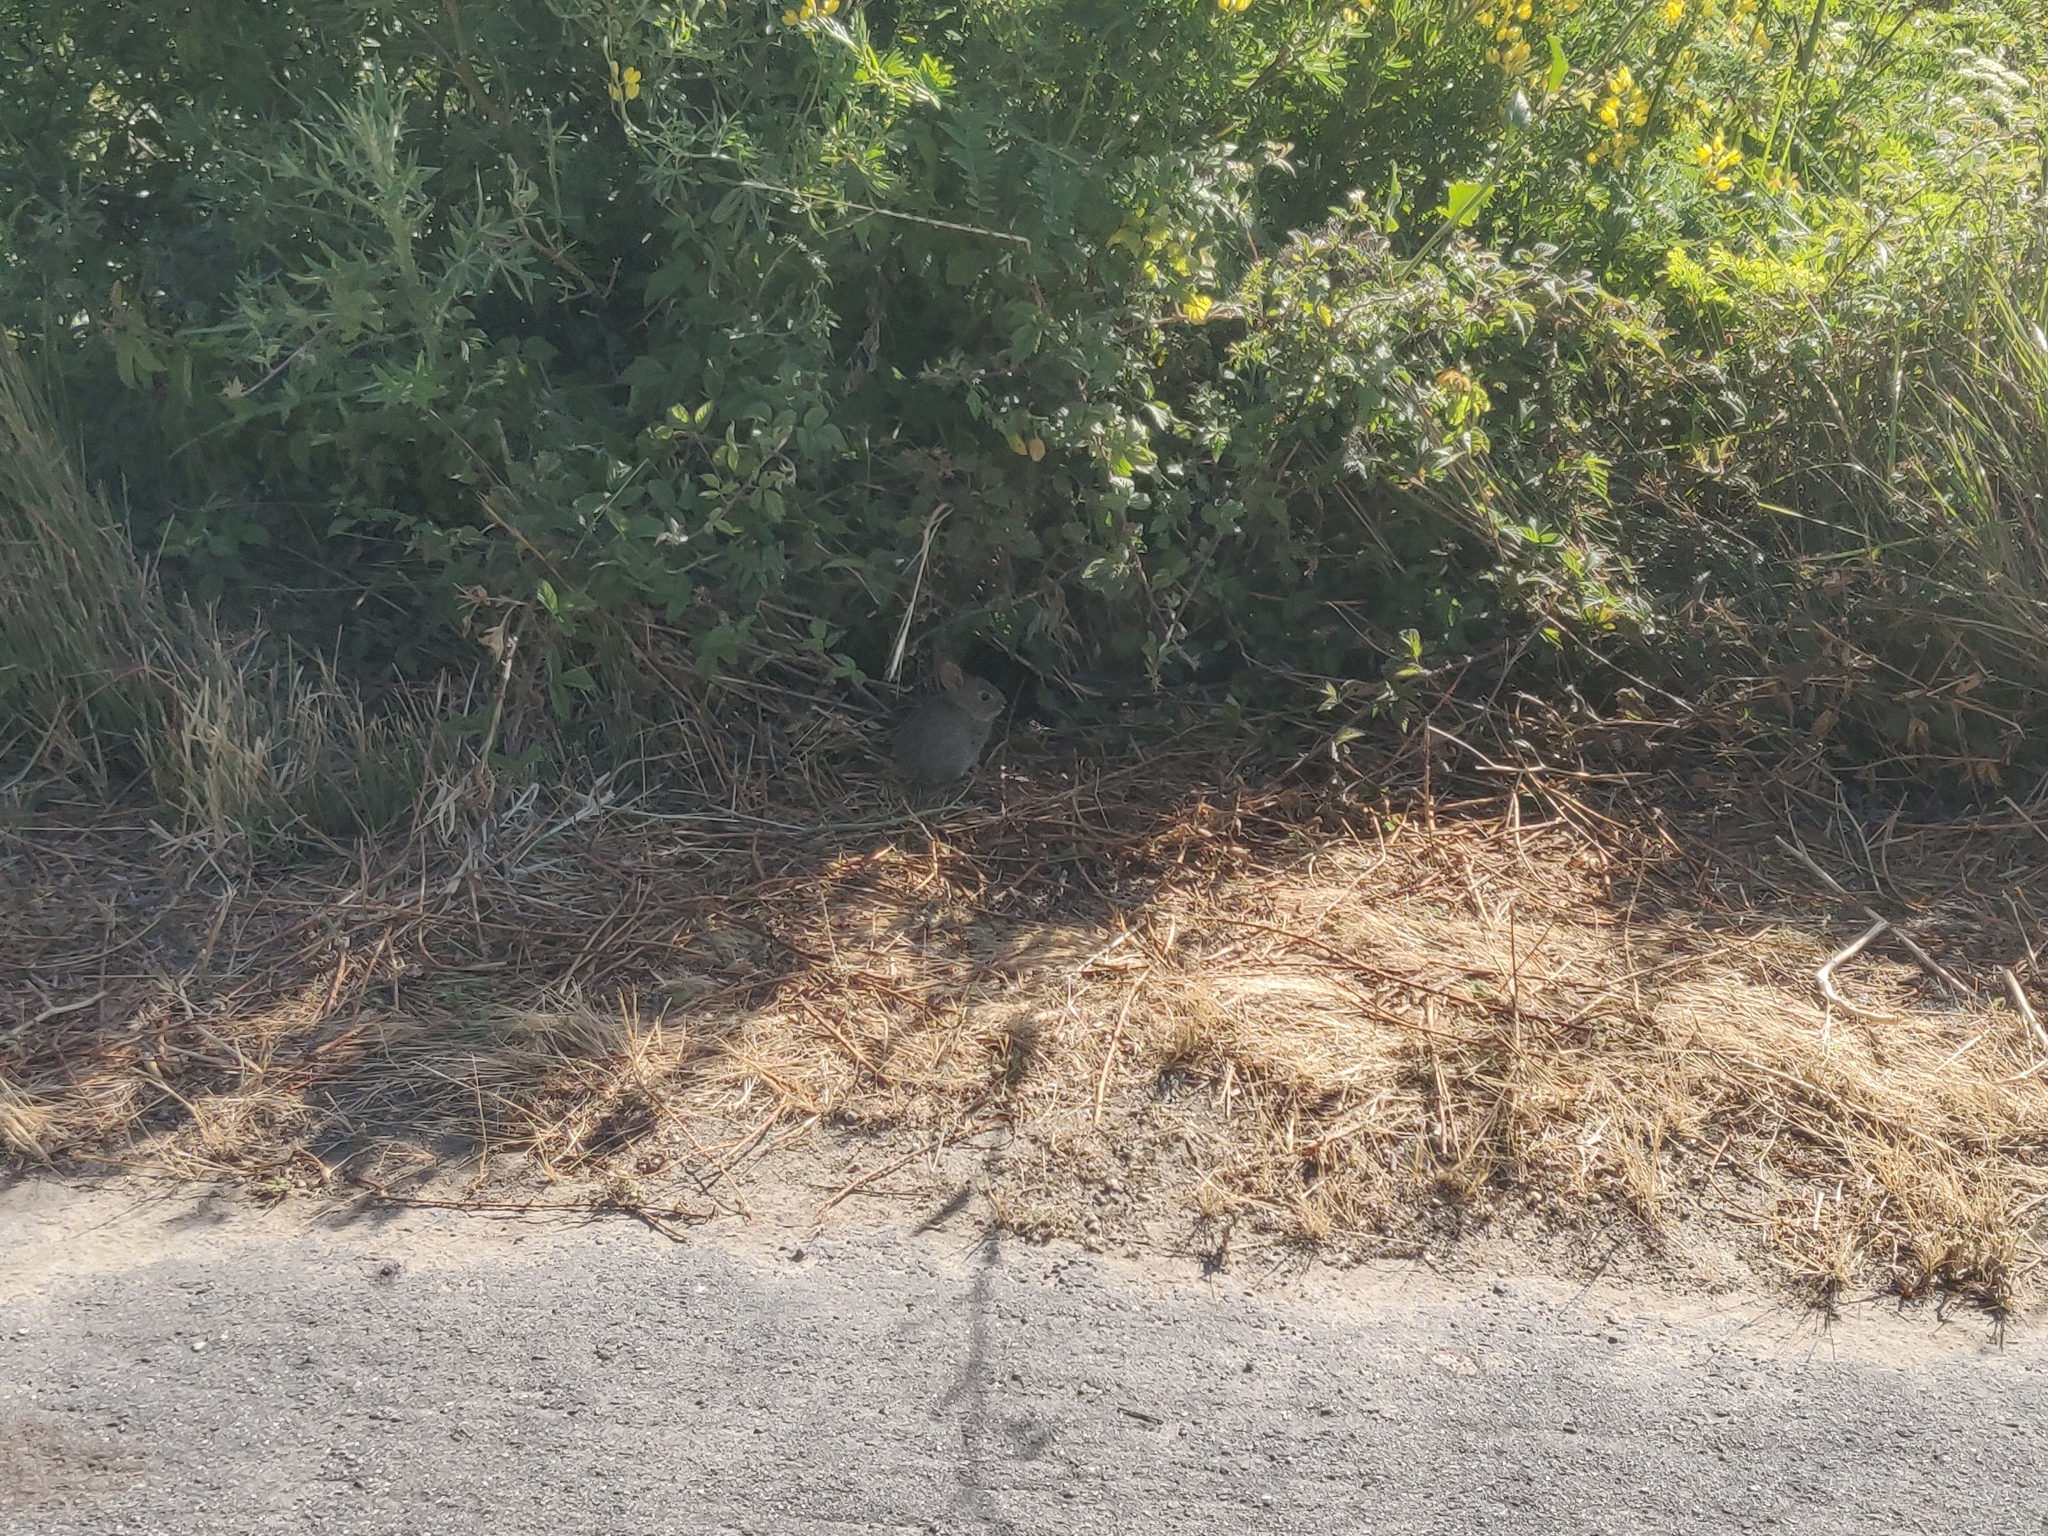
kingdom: Animalia
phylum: Chordata
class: Mammalia
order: Lagomorpha
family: Leporidae
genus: Sylvilagus
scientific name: Sylvilagus bachmani
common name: Brush rabbit
